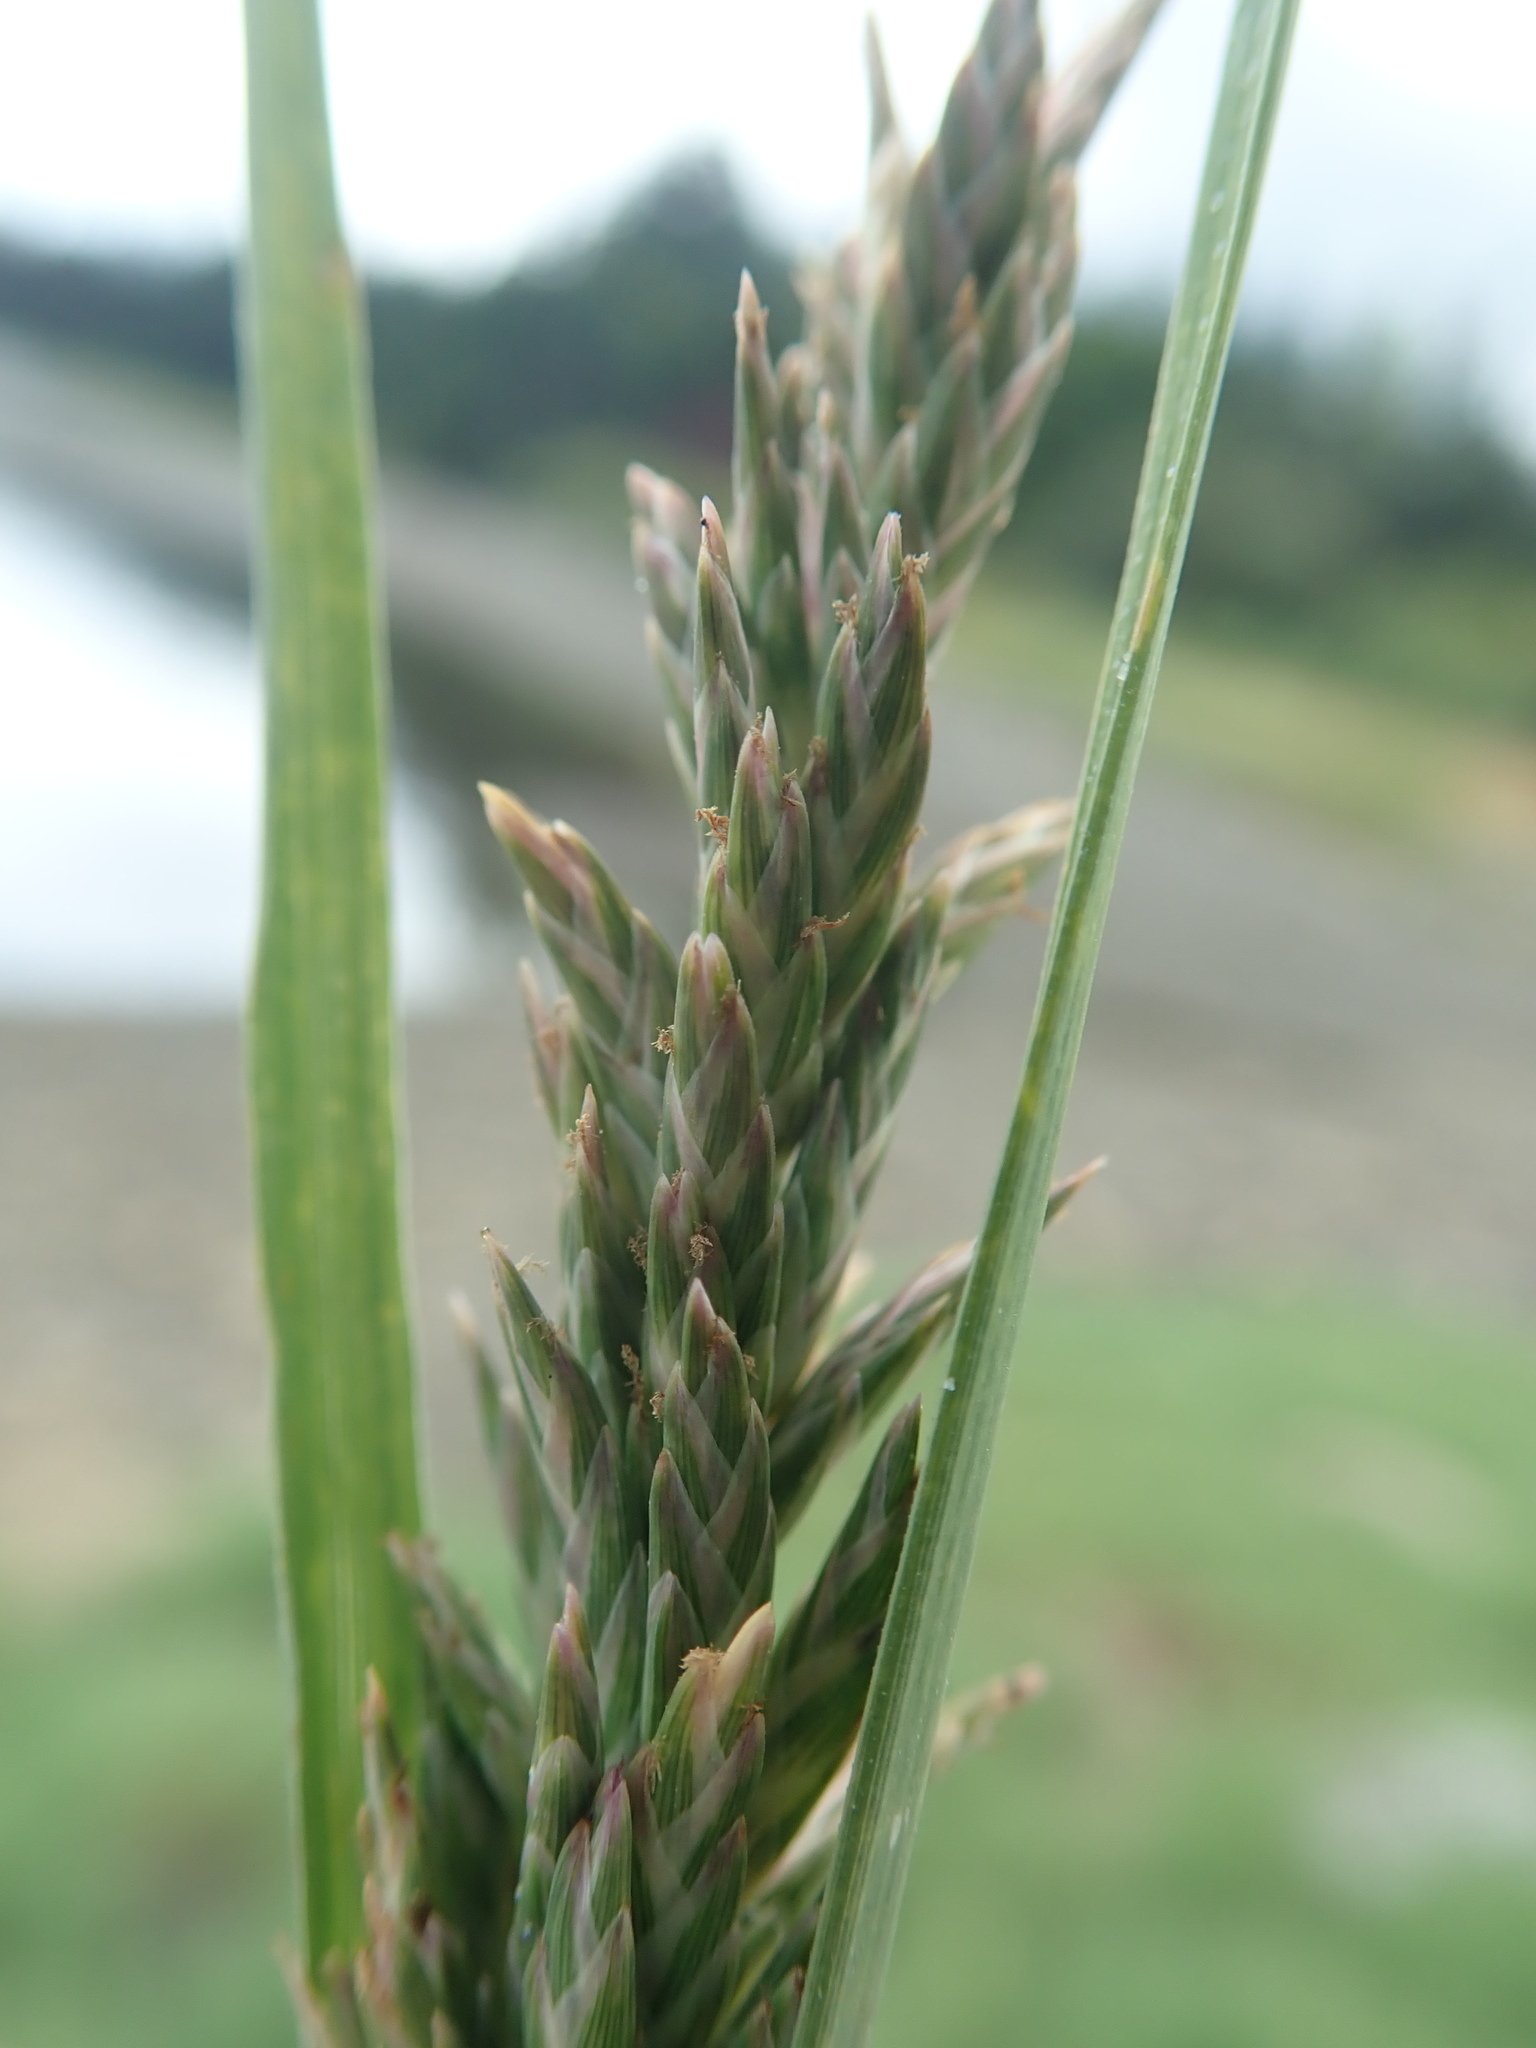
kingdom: Plantae
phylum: Tracheophyta
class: Liliopsida
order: Poales
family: Poaceae
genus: Distichlis
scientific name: Distichlis spicata
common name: Saltgrass
